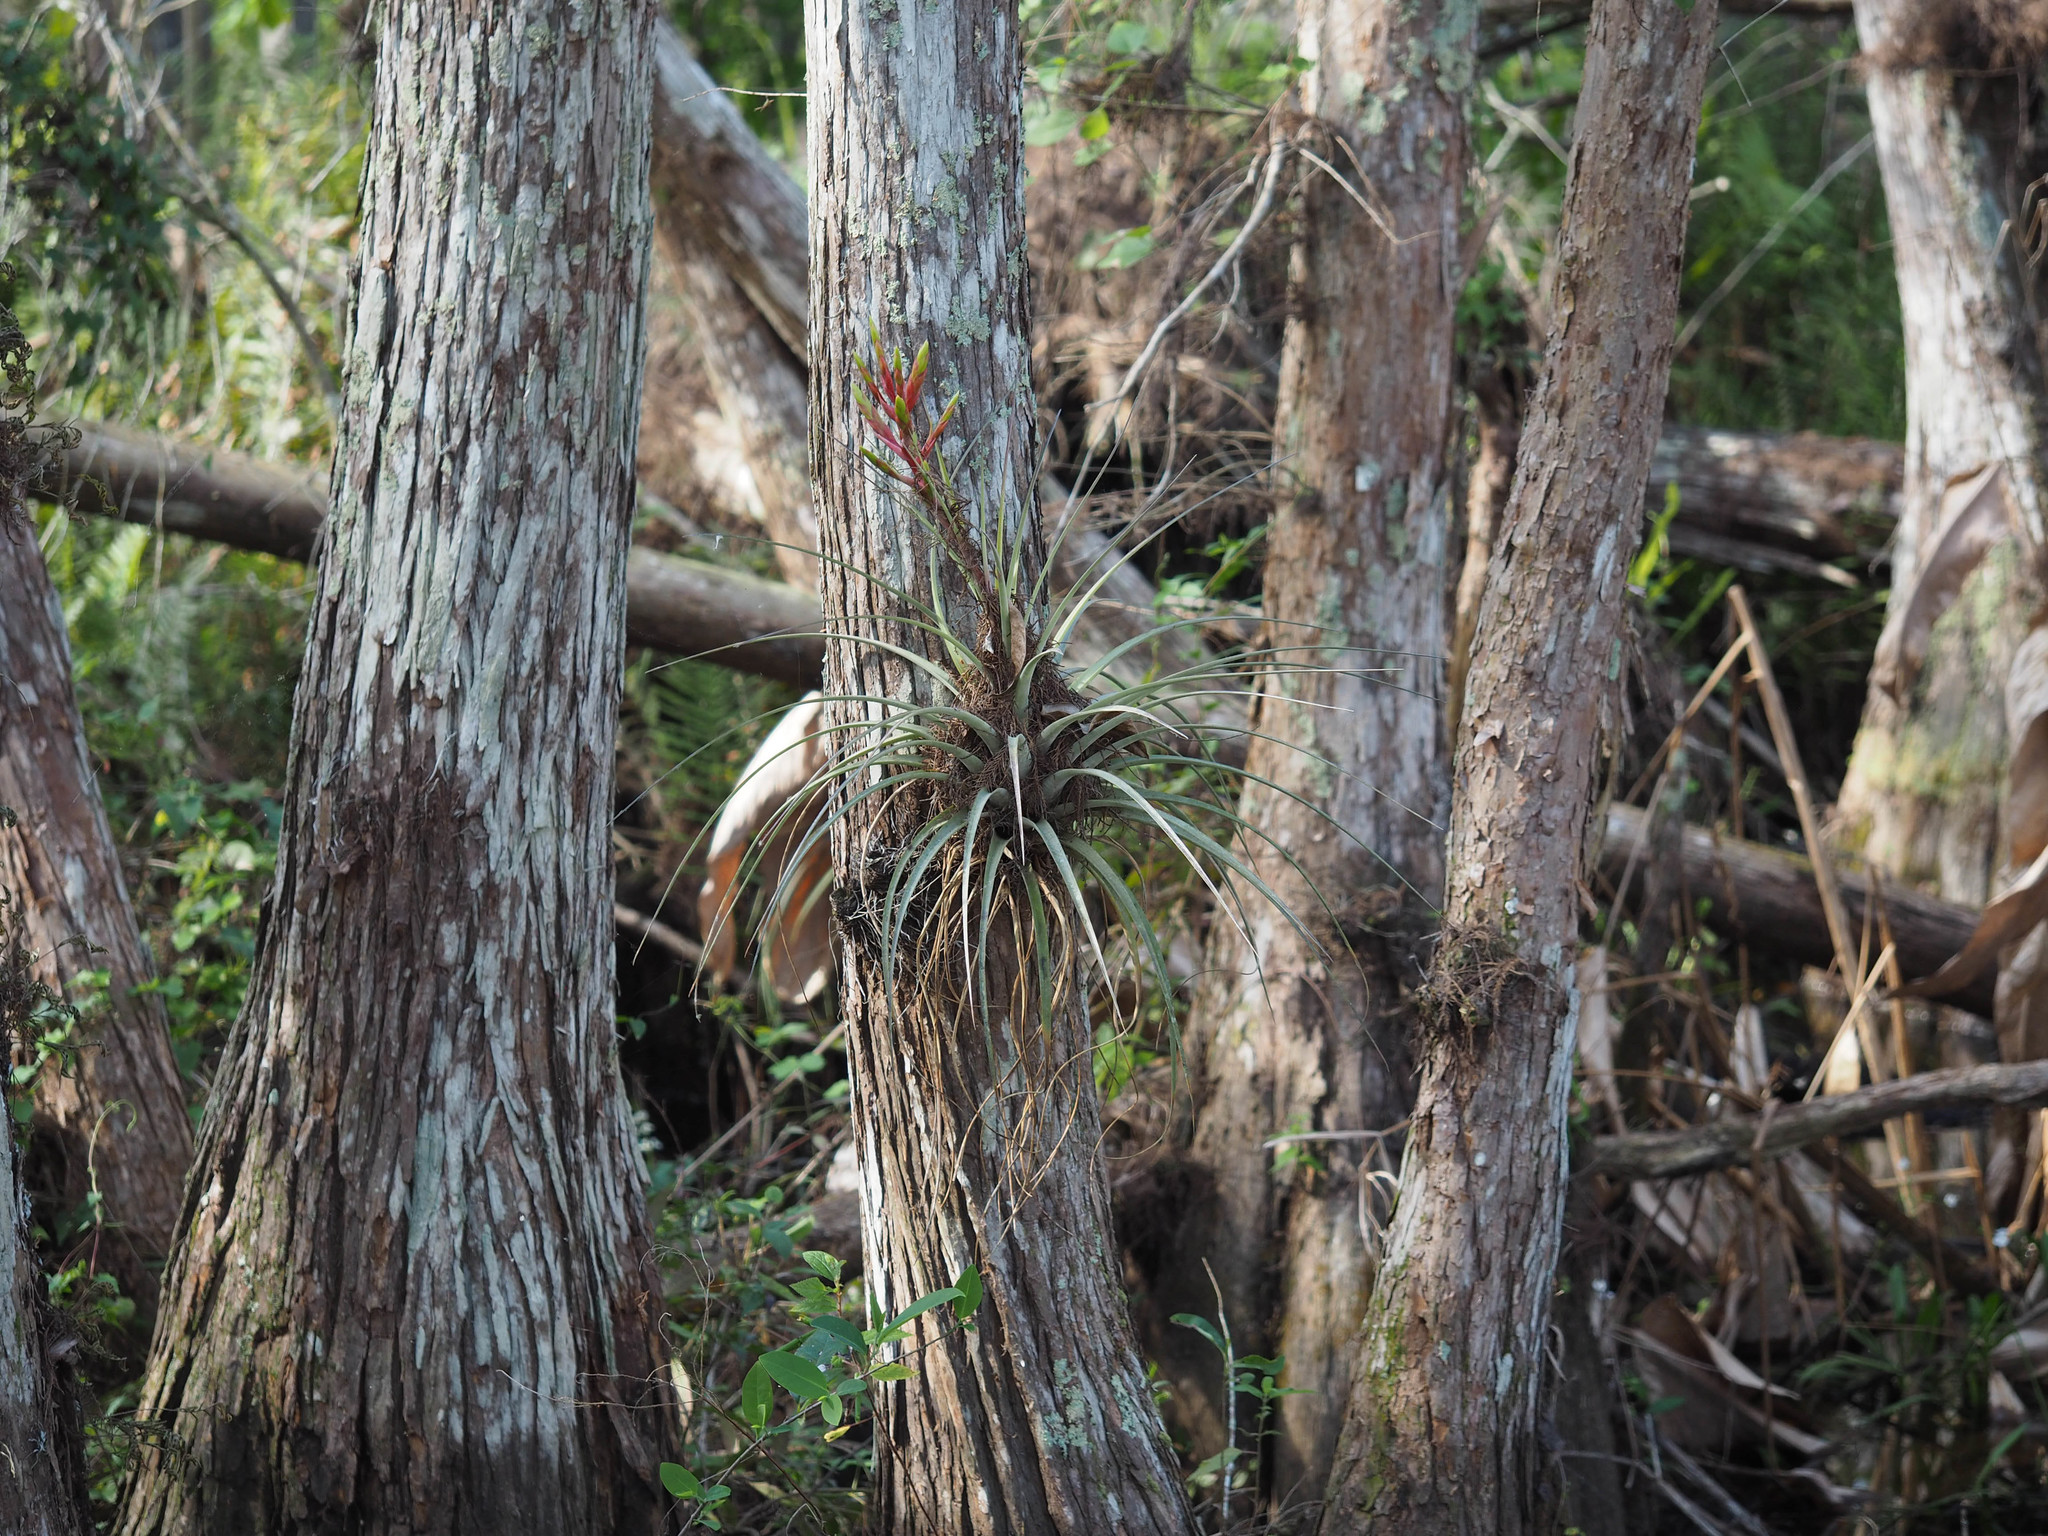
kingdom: Plantae
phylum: Tracheophyta
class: Liliopsida
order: Poales
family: Bromeliaceae
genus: Tillandsia
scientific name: Tillandsia fasciculata
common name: Giant airplant
